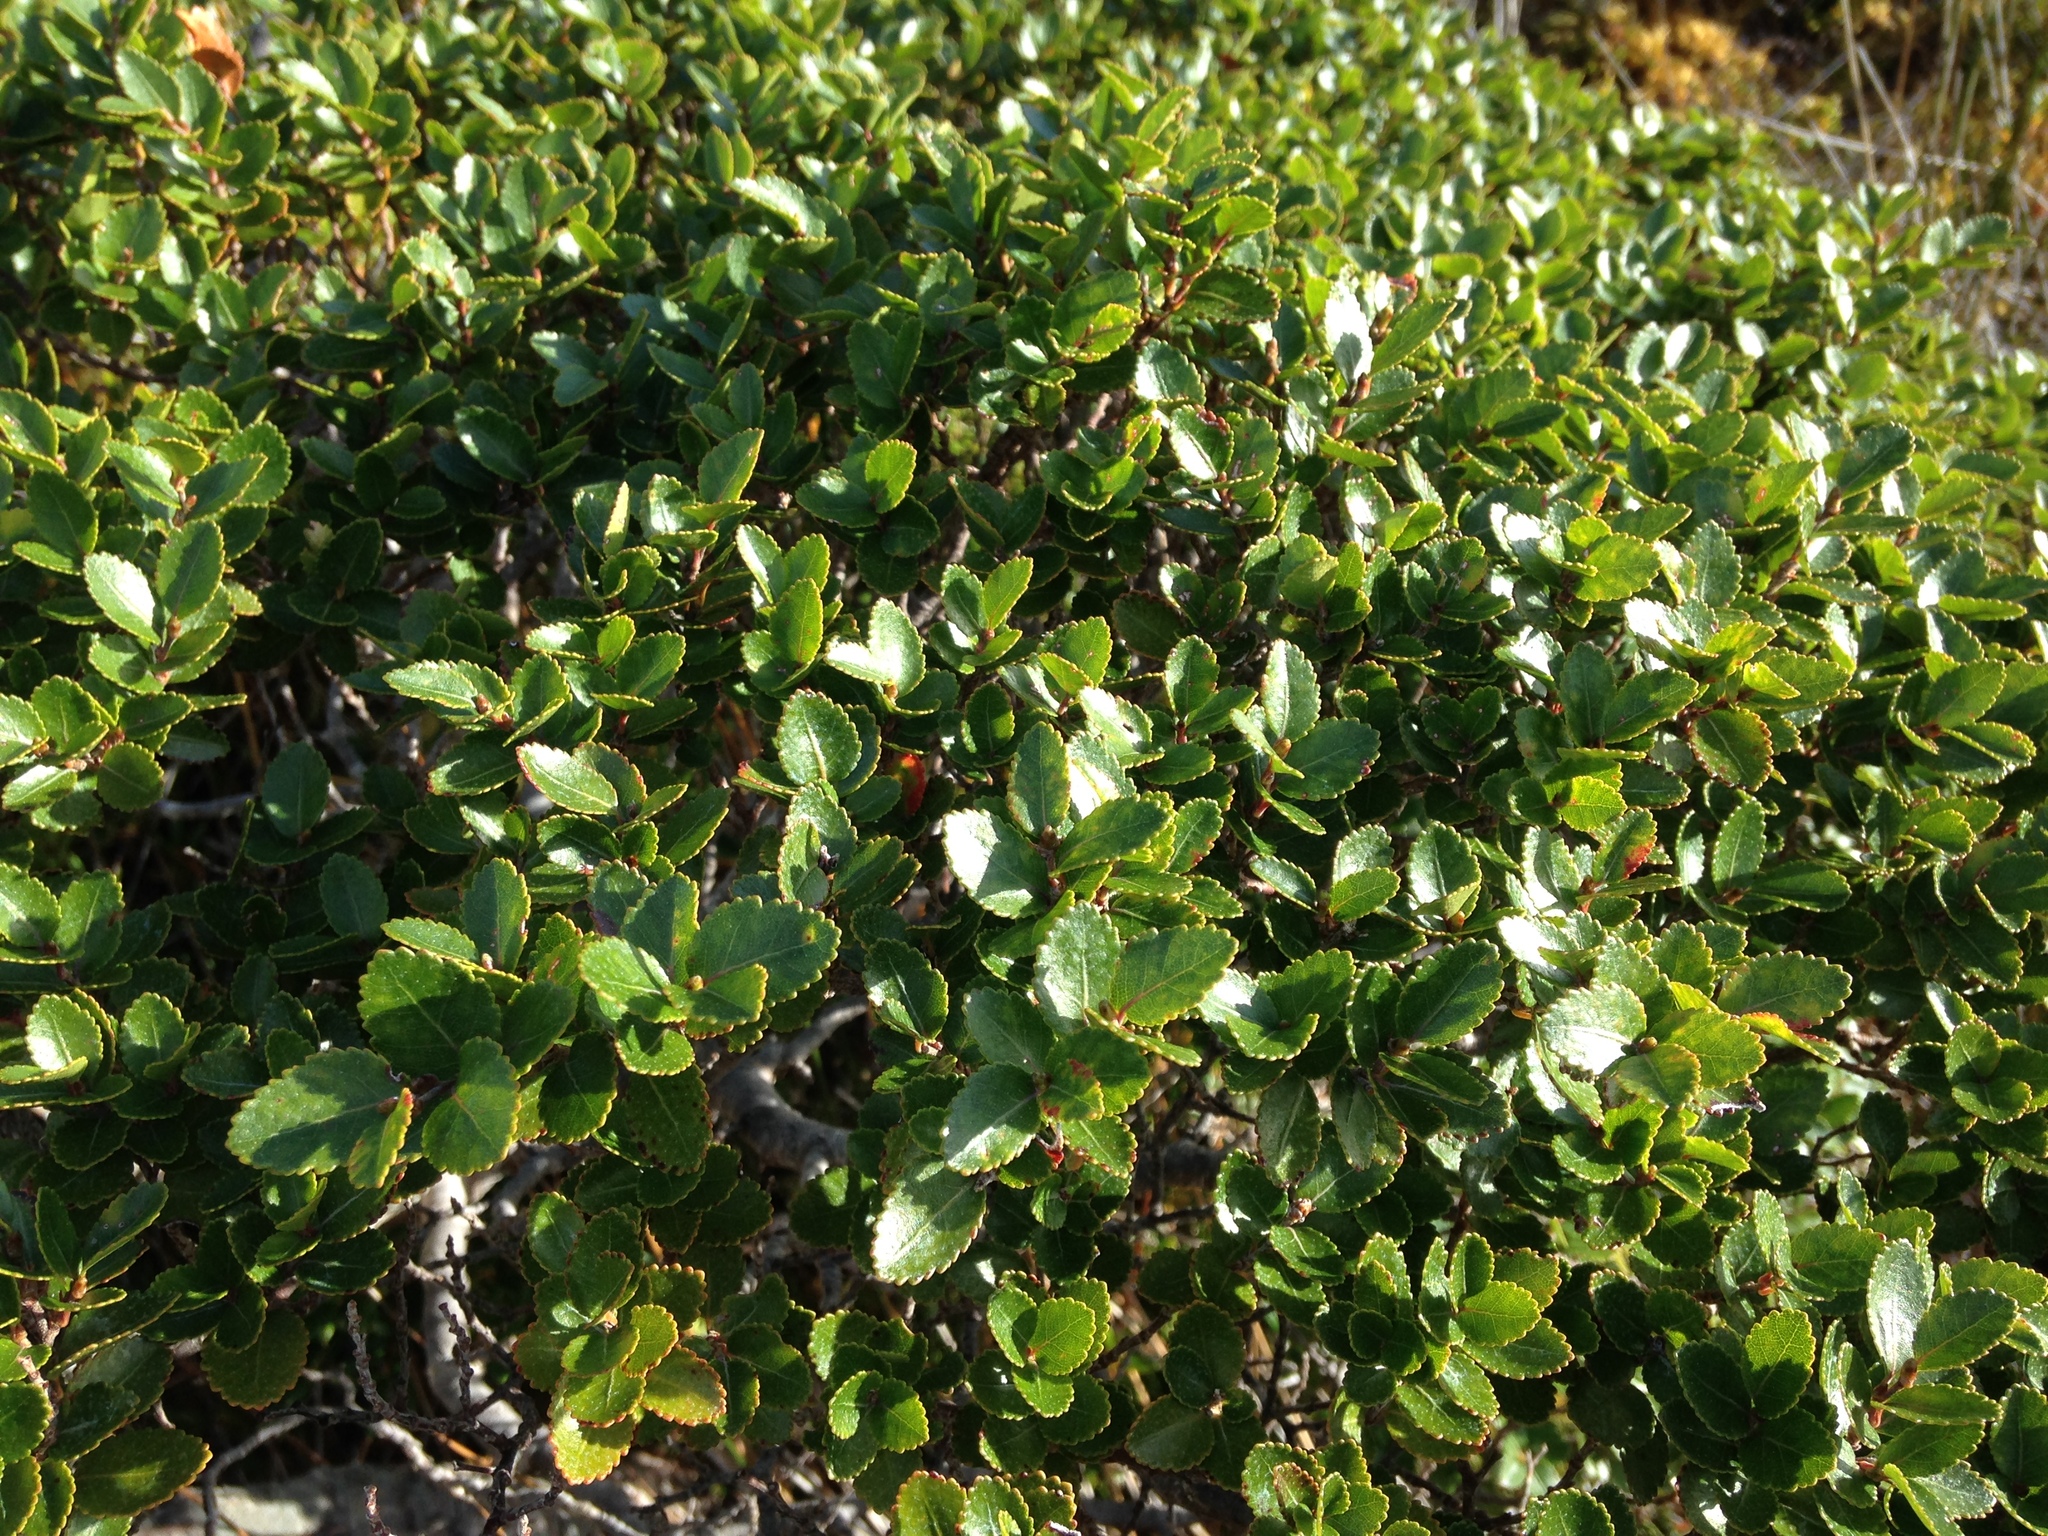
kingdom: Plantae
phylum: Tracheophyta
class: Magnoliopsida
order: Fagales
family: Nothofagaceae
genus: Nothofagus
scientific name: Nothofagus betuloides
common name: Magellan's beech
